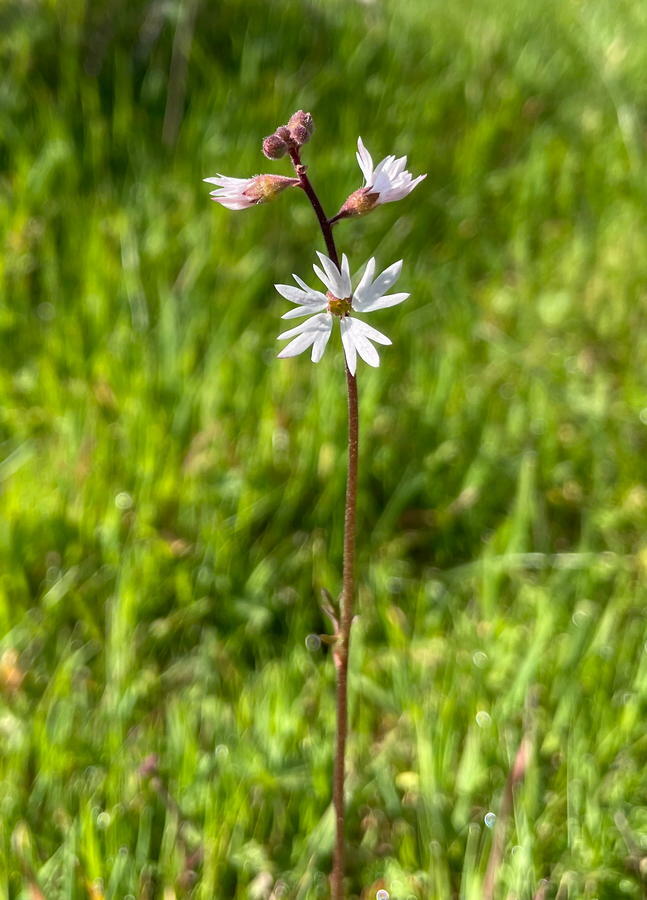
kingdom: Plantae
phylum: Tracheophyta
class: Magnoliopsida
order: Saxifragales
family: Saxifragaceae
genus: Lithophragma
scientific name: Lithophragma parviflorum
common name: Small-flowered fringe-cup
